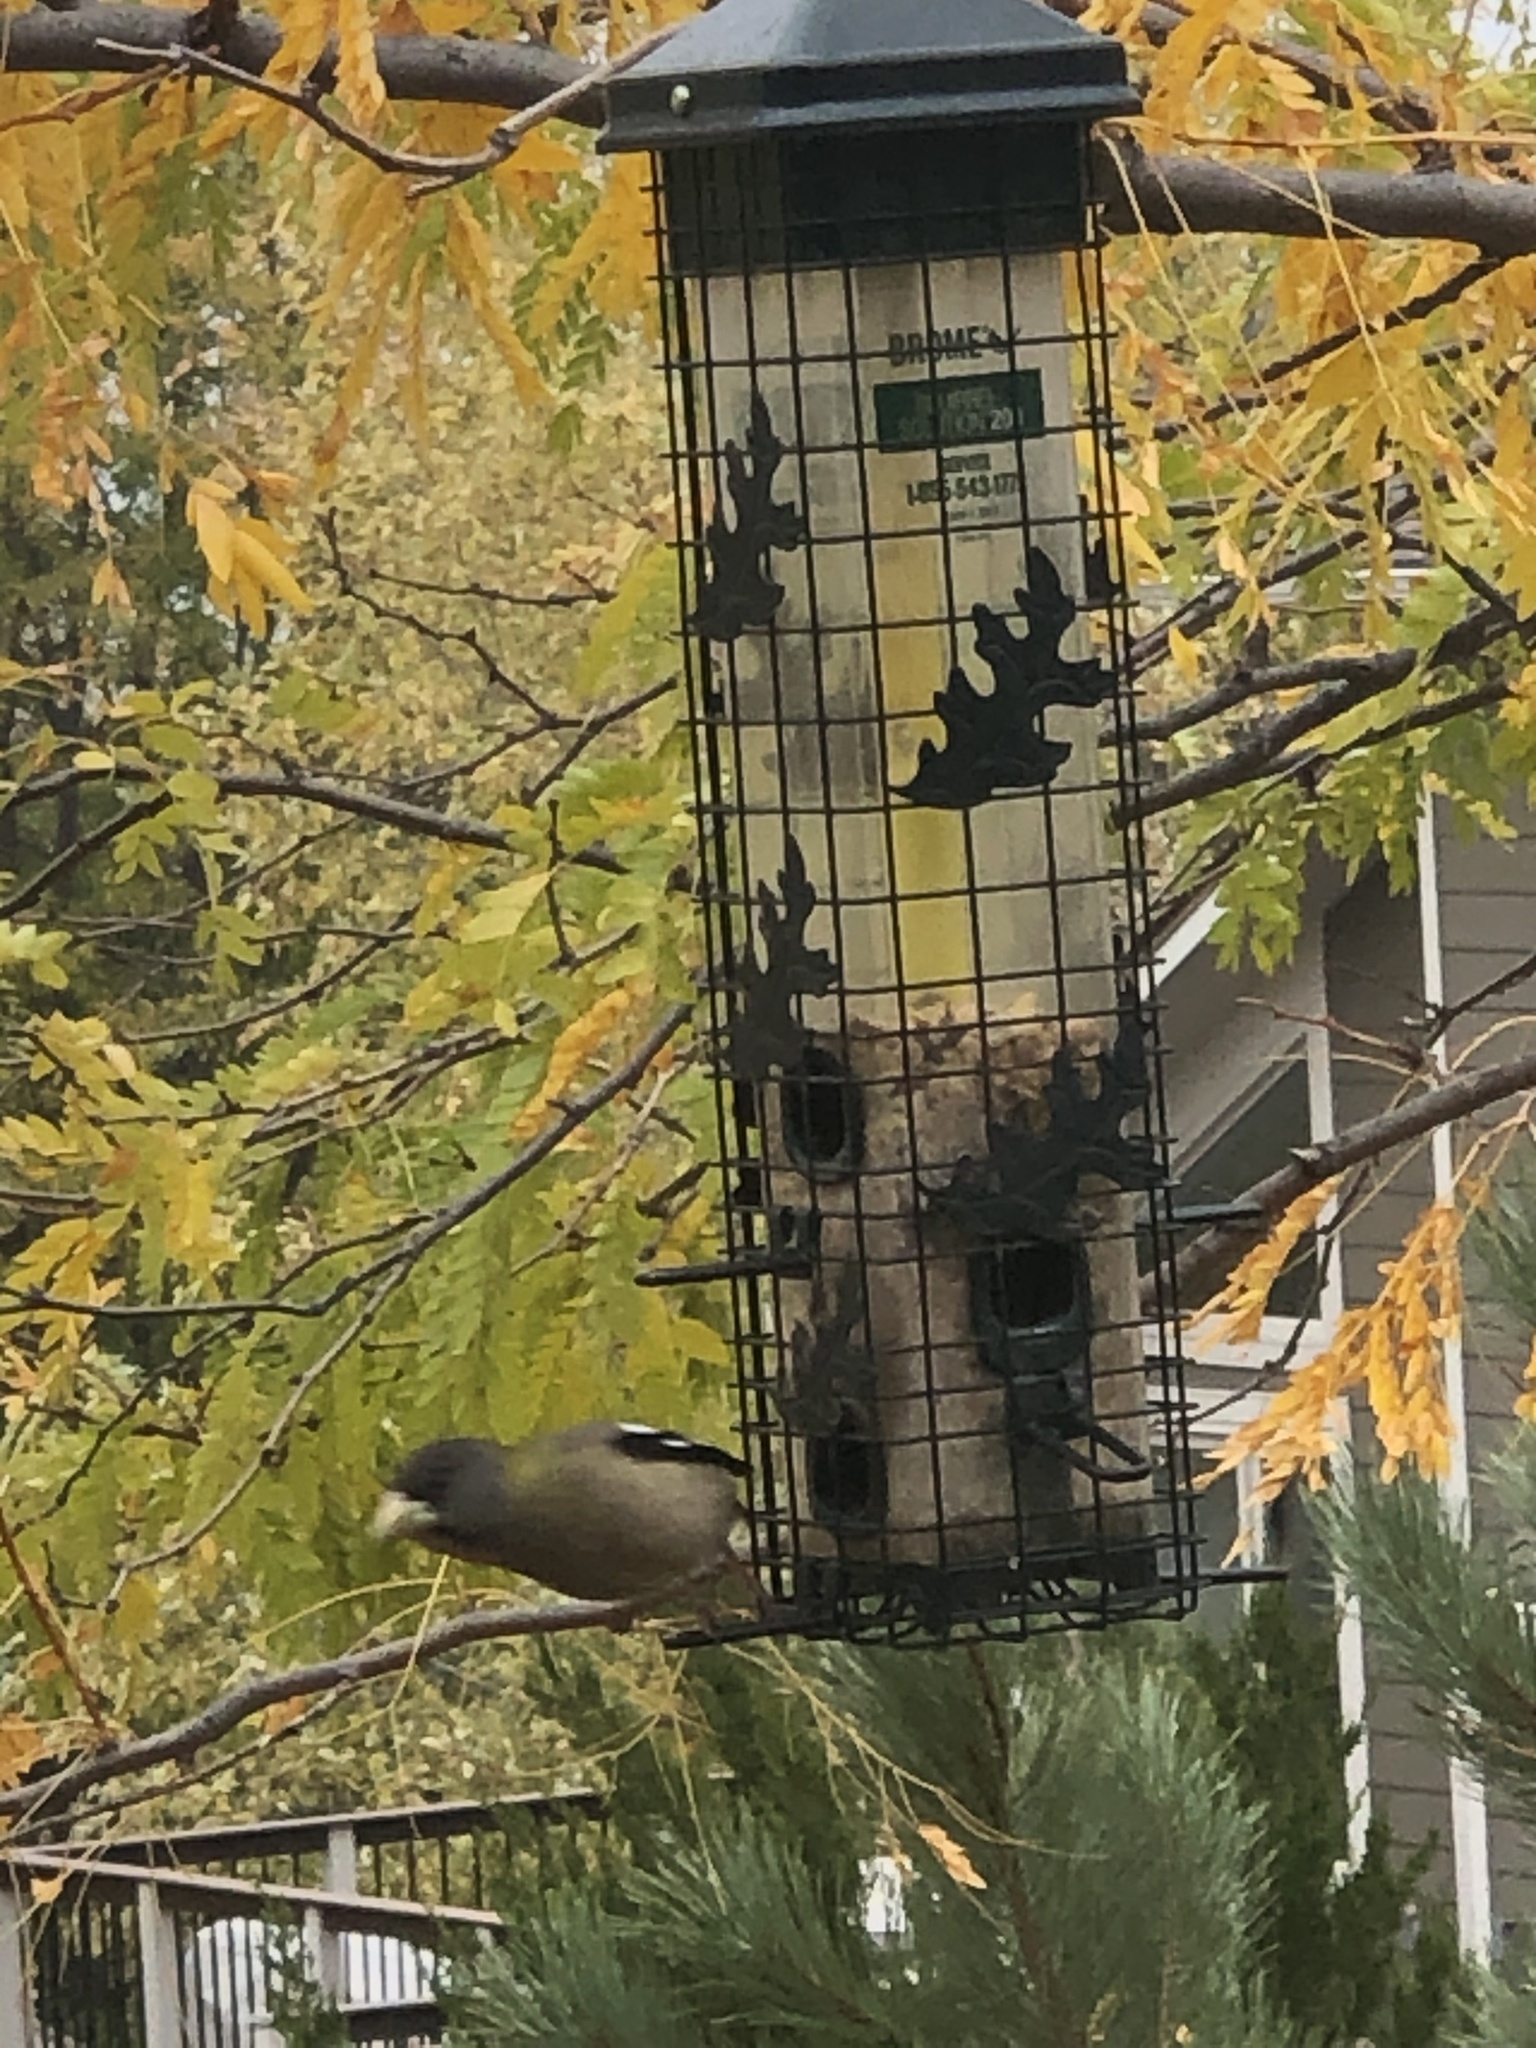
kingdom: Animalia
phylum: Chordata
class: Aves
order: Passeriformes
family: Fringillidae
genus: Hesperiphona
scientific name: Hesperiphona vespertina
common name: Evening grosbeak
